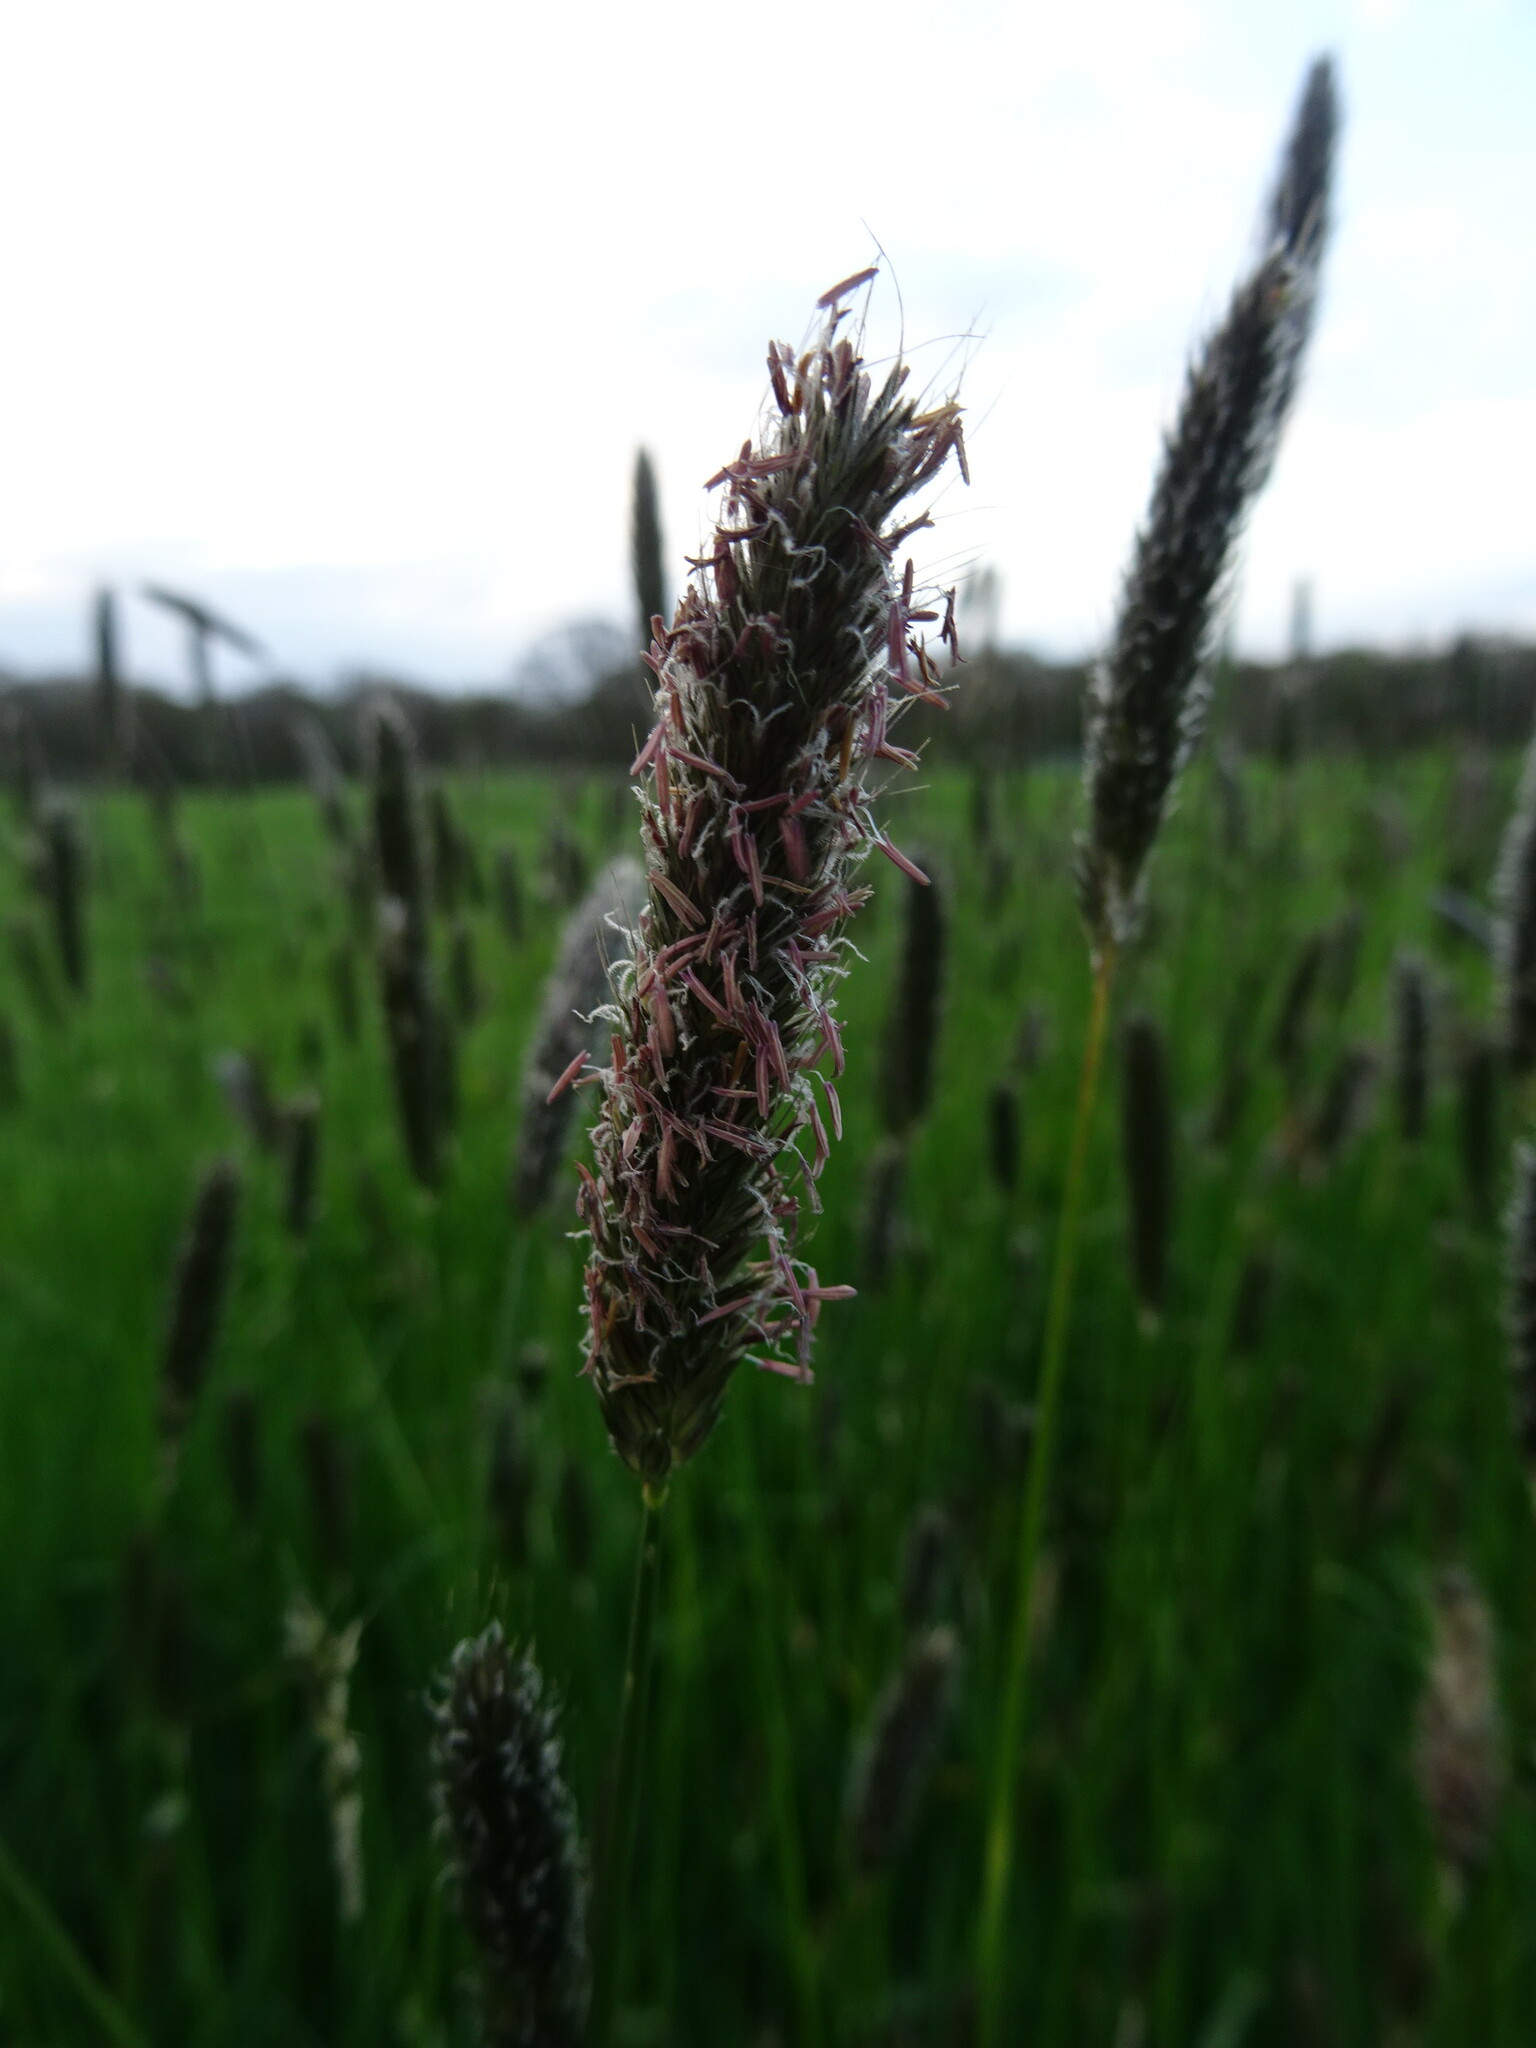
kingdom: Plantae
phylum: Tracheophyta
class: Liliopsida
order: Poales
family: Poaceae
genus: Alopecurus
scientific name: Alopecurus pratensis
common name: Meadow foxtail
